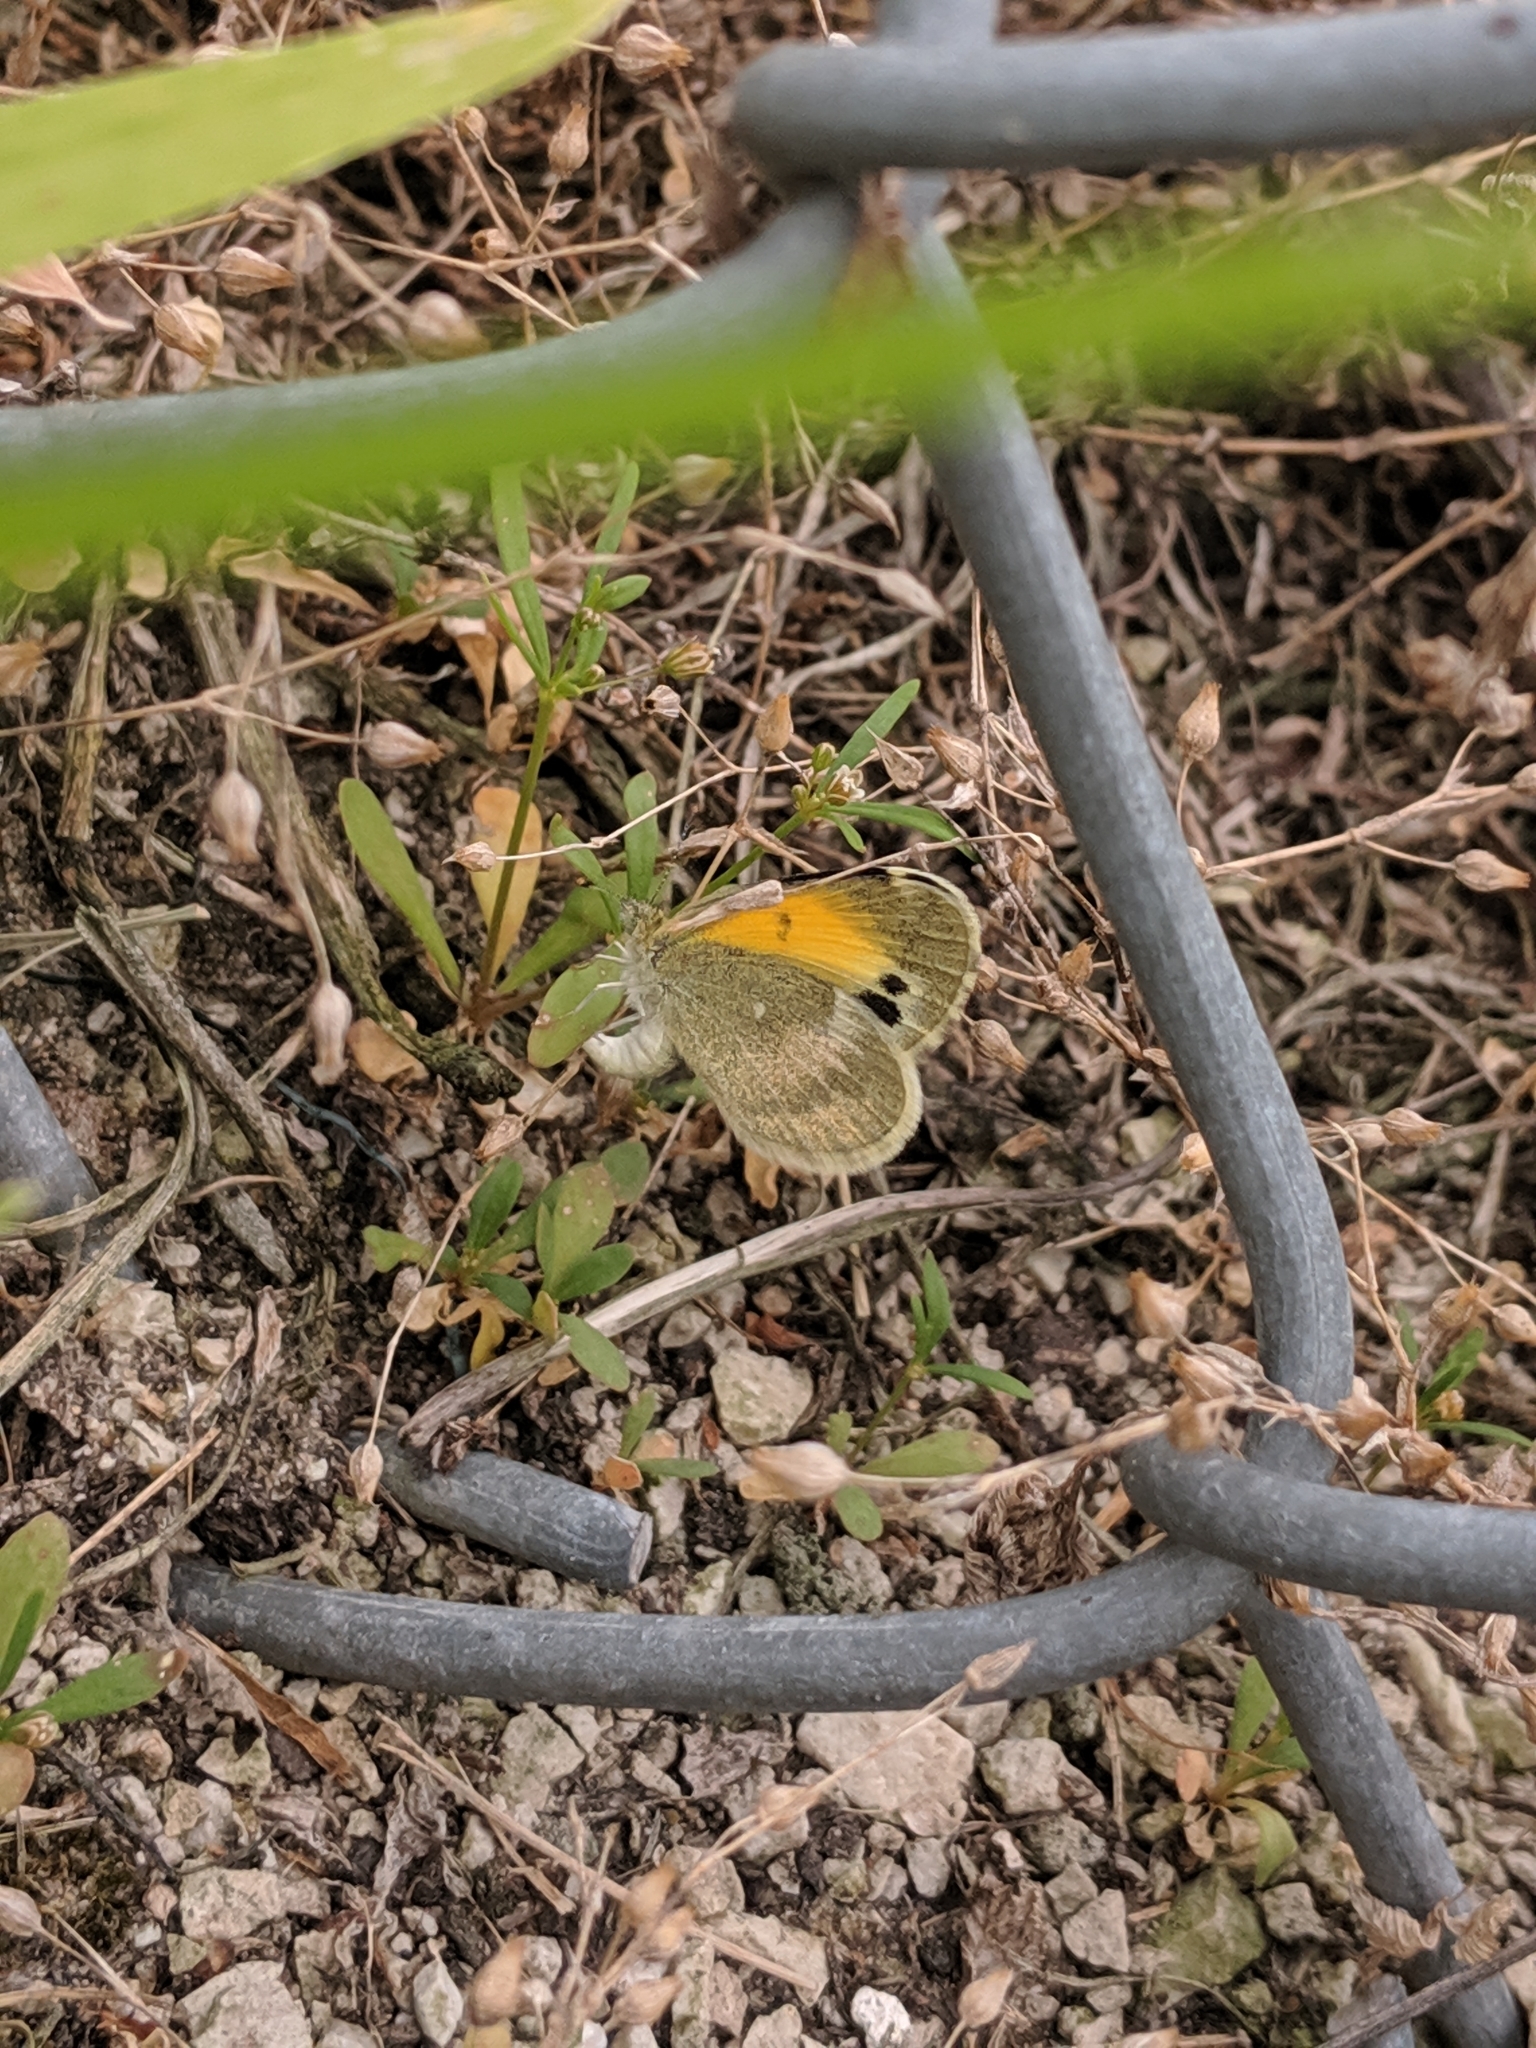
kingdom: Animalia
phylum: Arthropoda
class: Insecta
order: Lepidoptera
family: Pieridae
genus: Nathalis
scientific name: Nathalis iole
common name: Dainty sulphur
